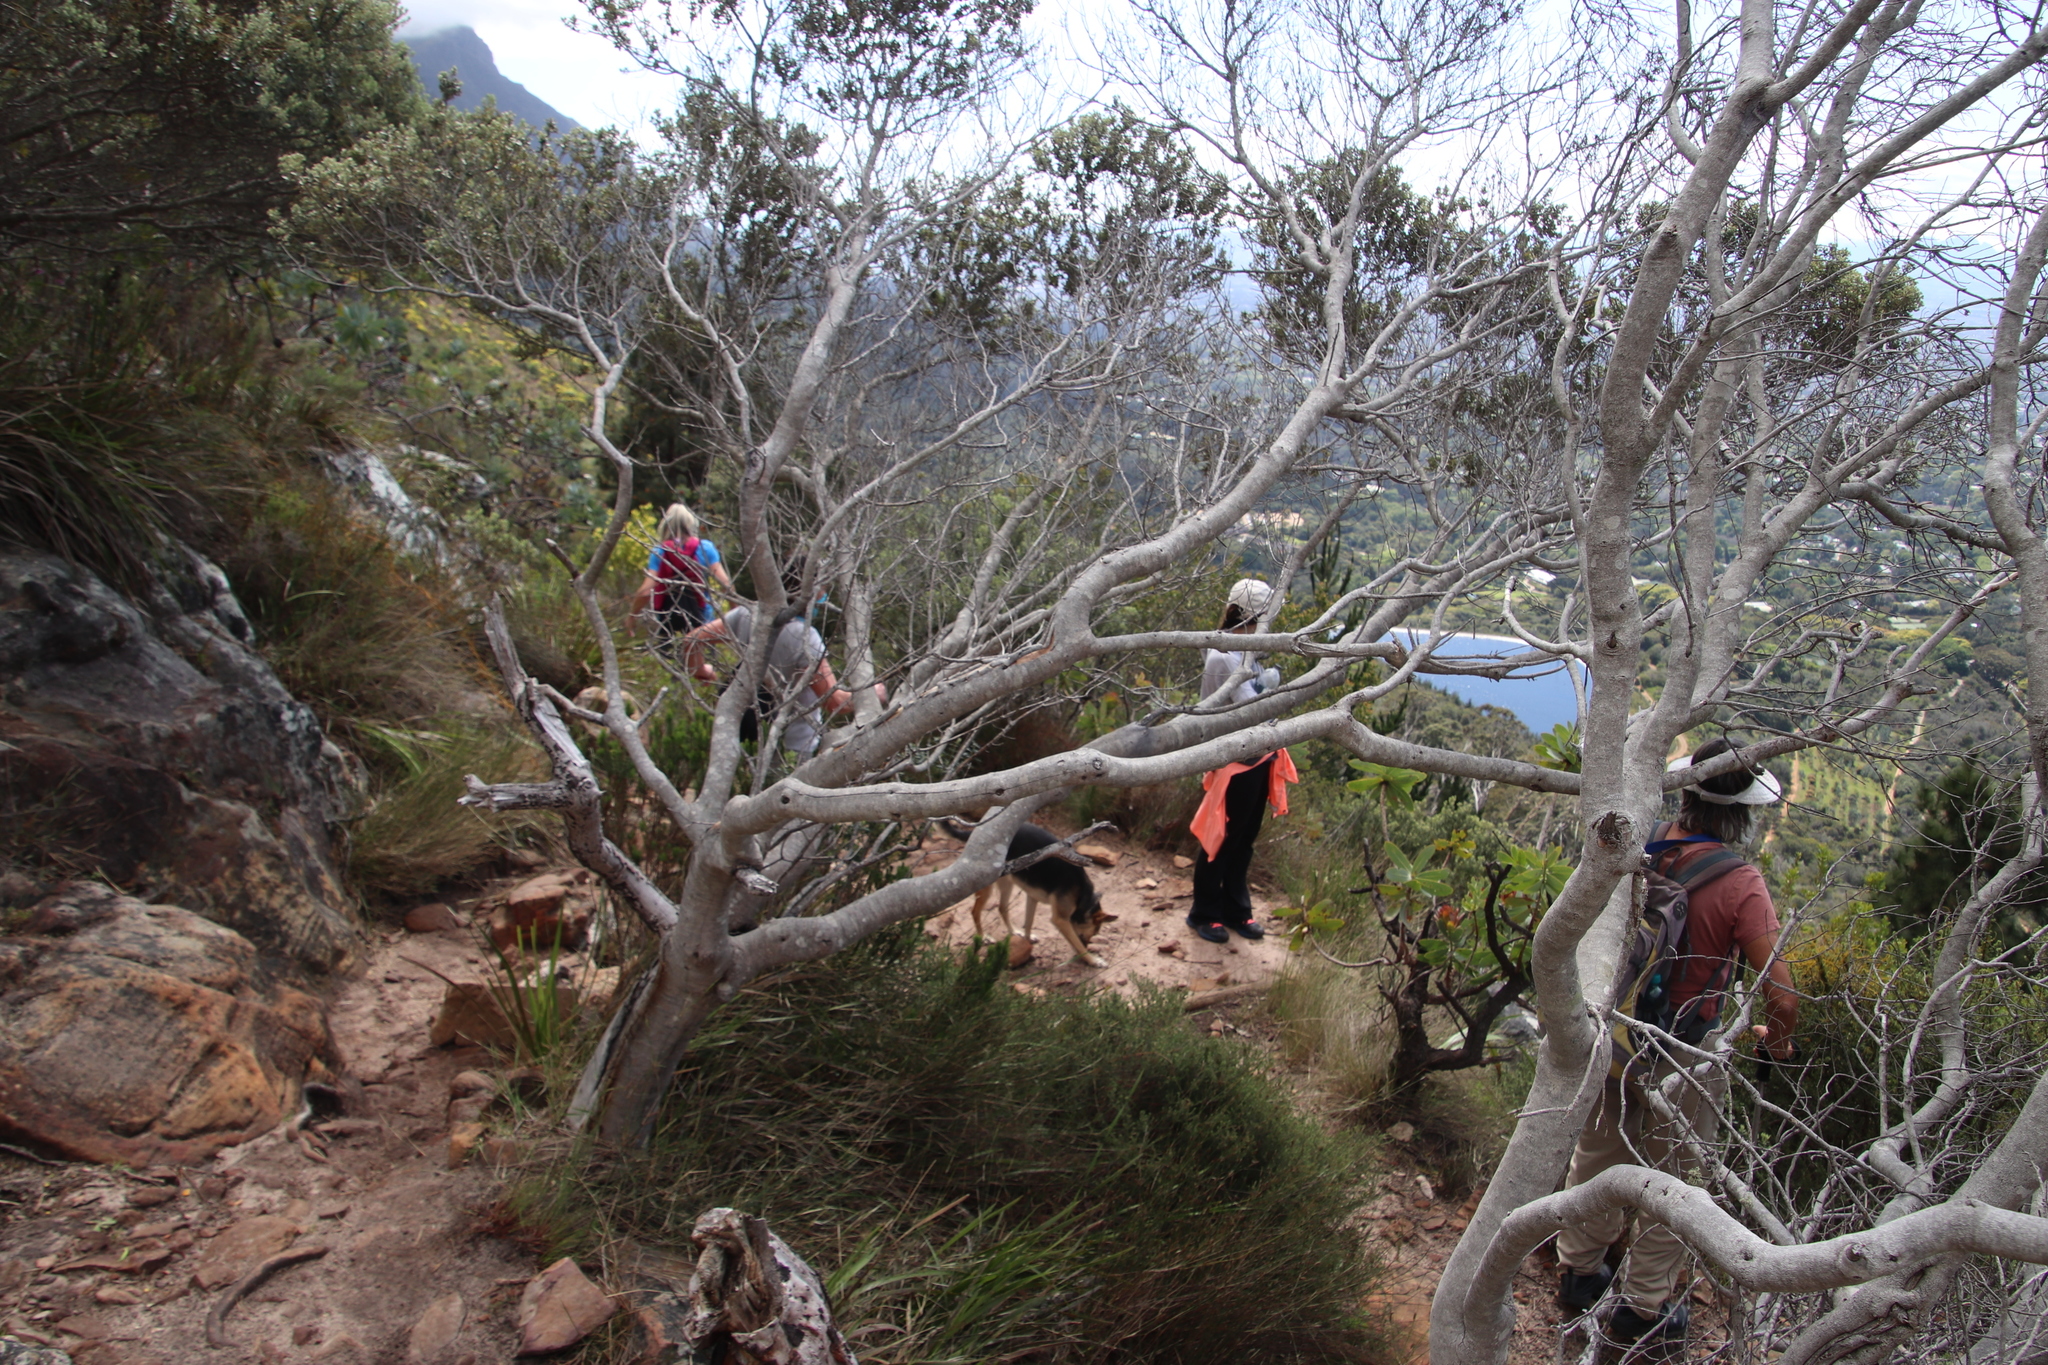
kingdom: Plantae
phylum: Tracheophyta
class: Magnoliopsida
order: Rosales
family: Rhamnaceae
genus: Phylica
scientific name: Phylica buxifolia
